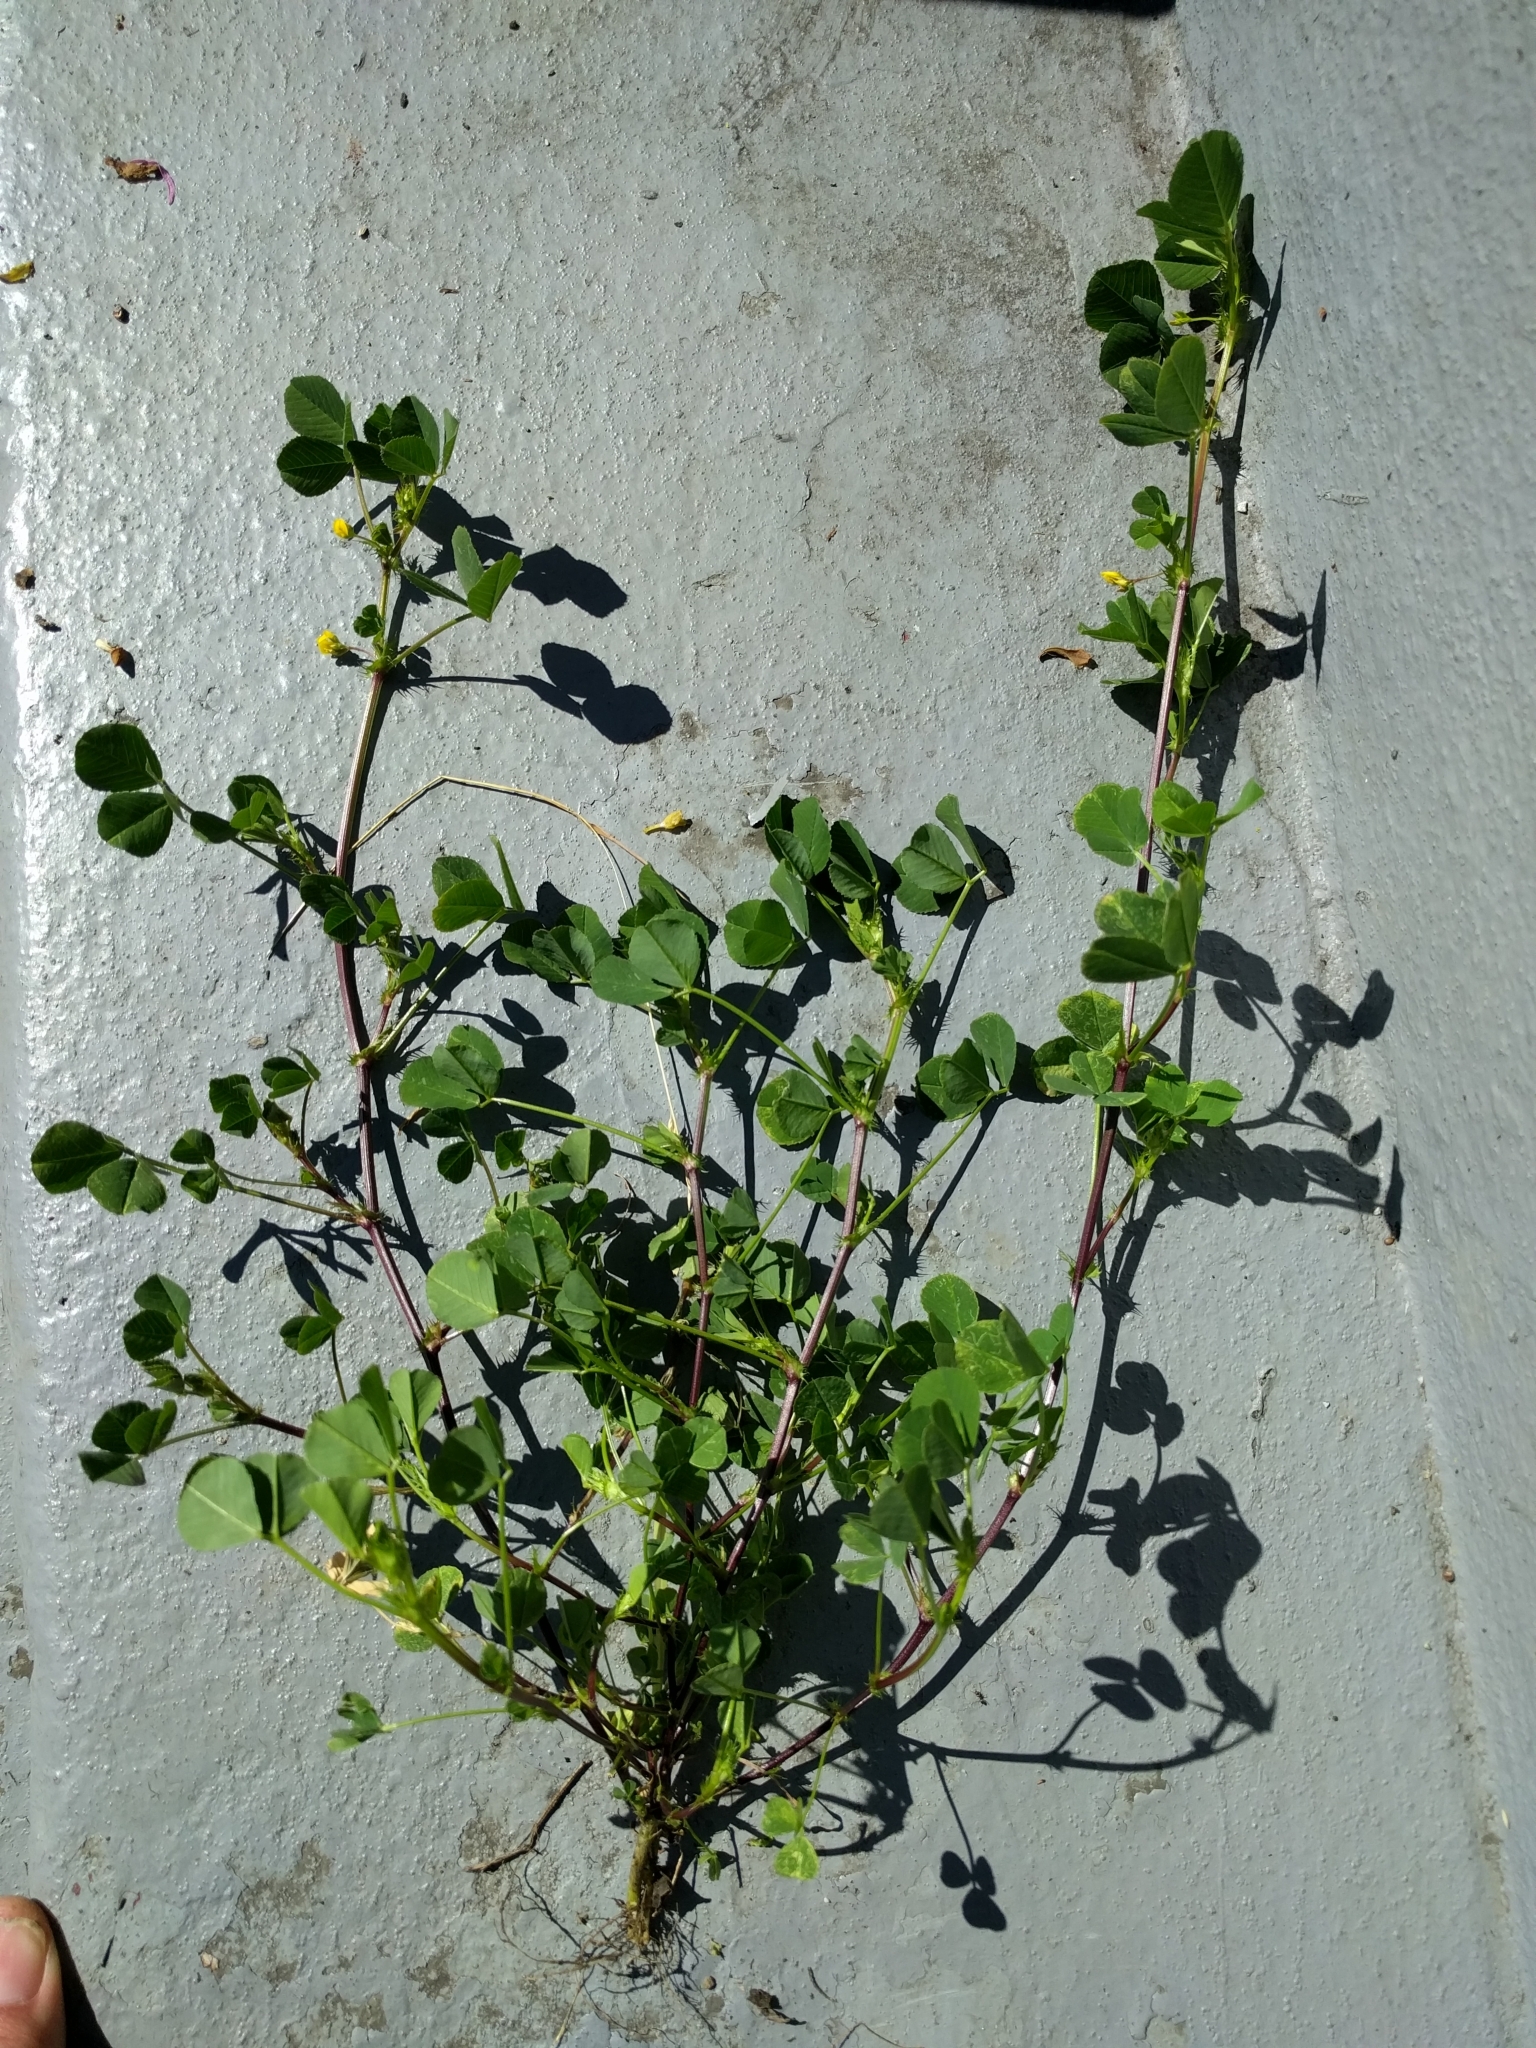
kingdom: Plantae
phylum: Tracheophyta
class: Magnoliopsida
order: Fabales
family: Fabaceae
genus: Medicago
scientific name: Medicago polymorpha
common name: Burclover
